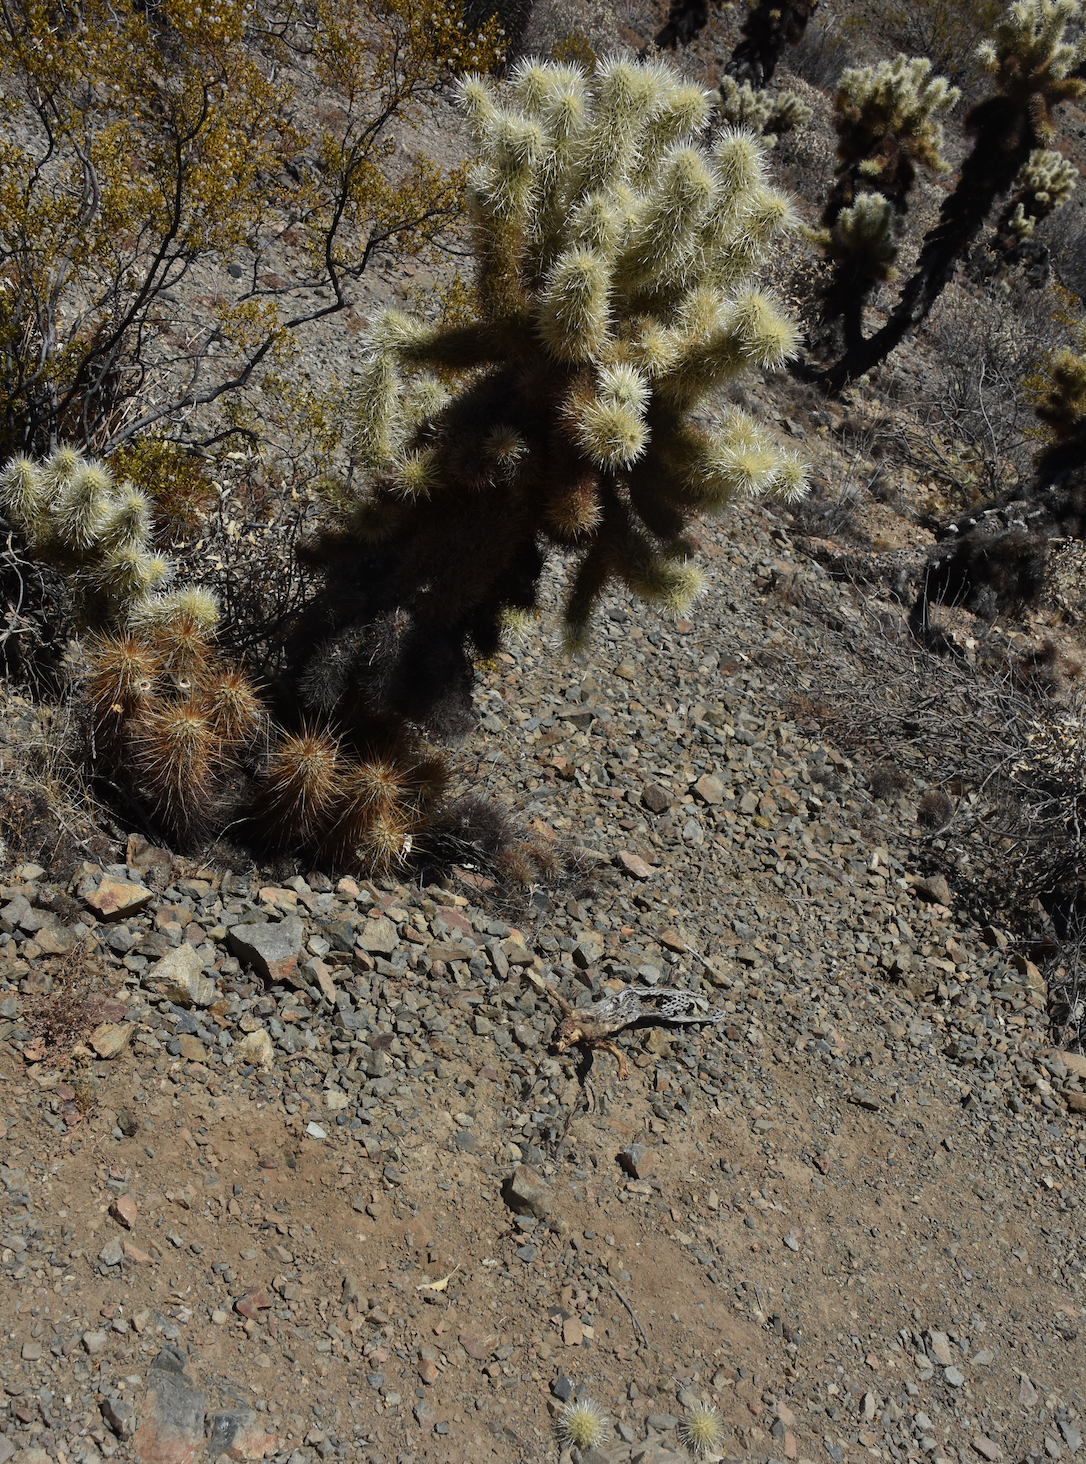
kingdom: Plantae
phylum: Tracheophyta
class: Magnoliopsida
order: Caryophyllales
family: Cactaceae
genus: Cylindropuntia
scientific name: Cylindropuntia fosbergii
